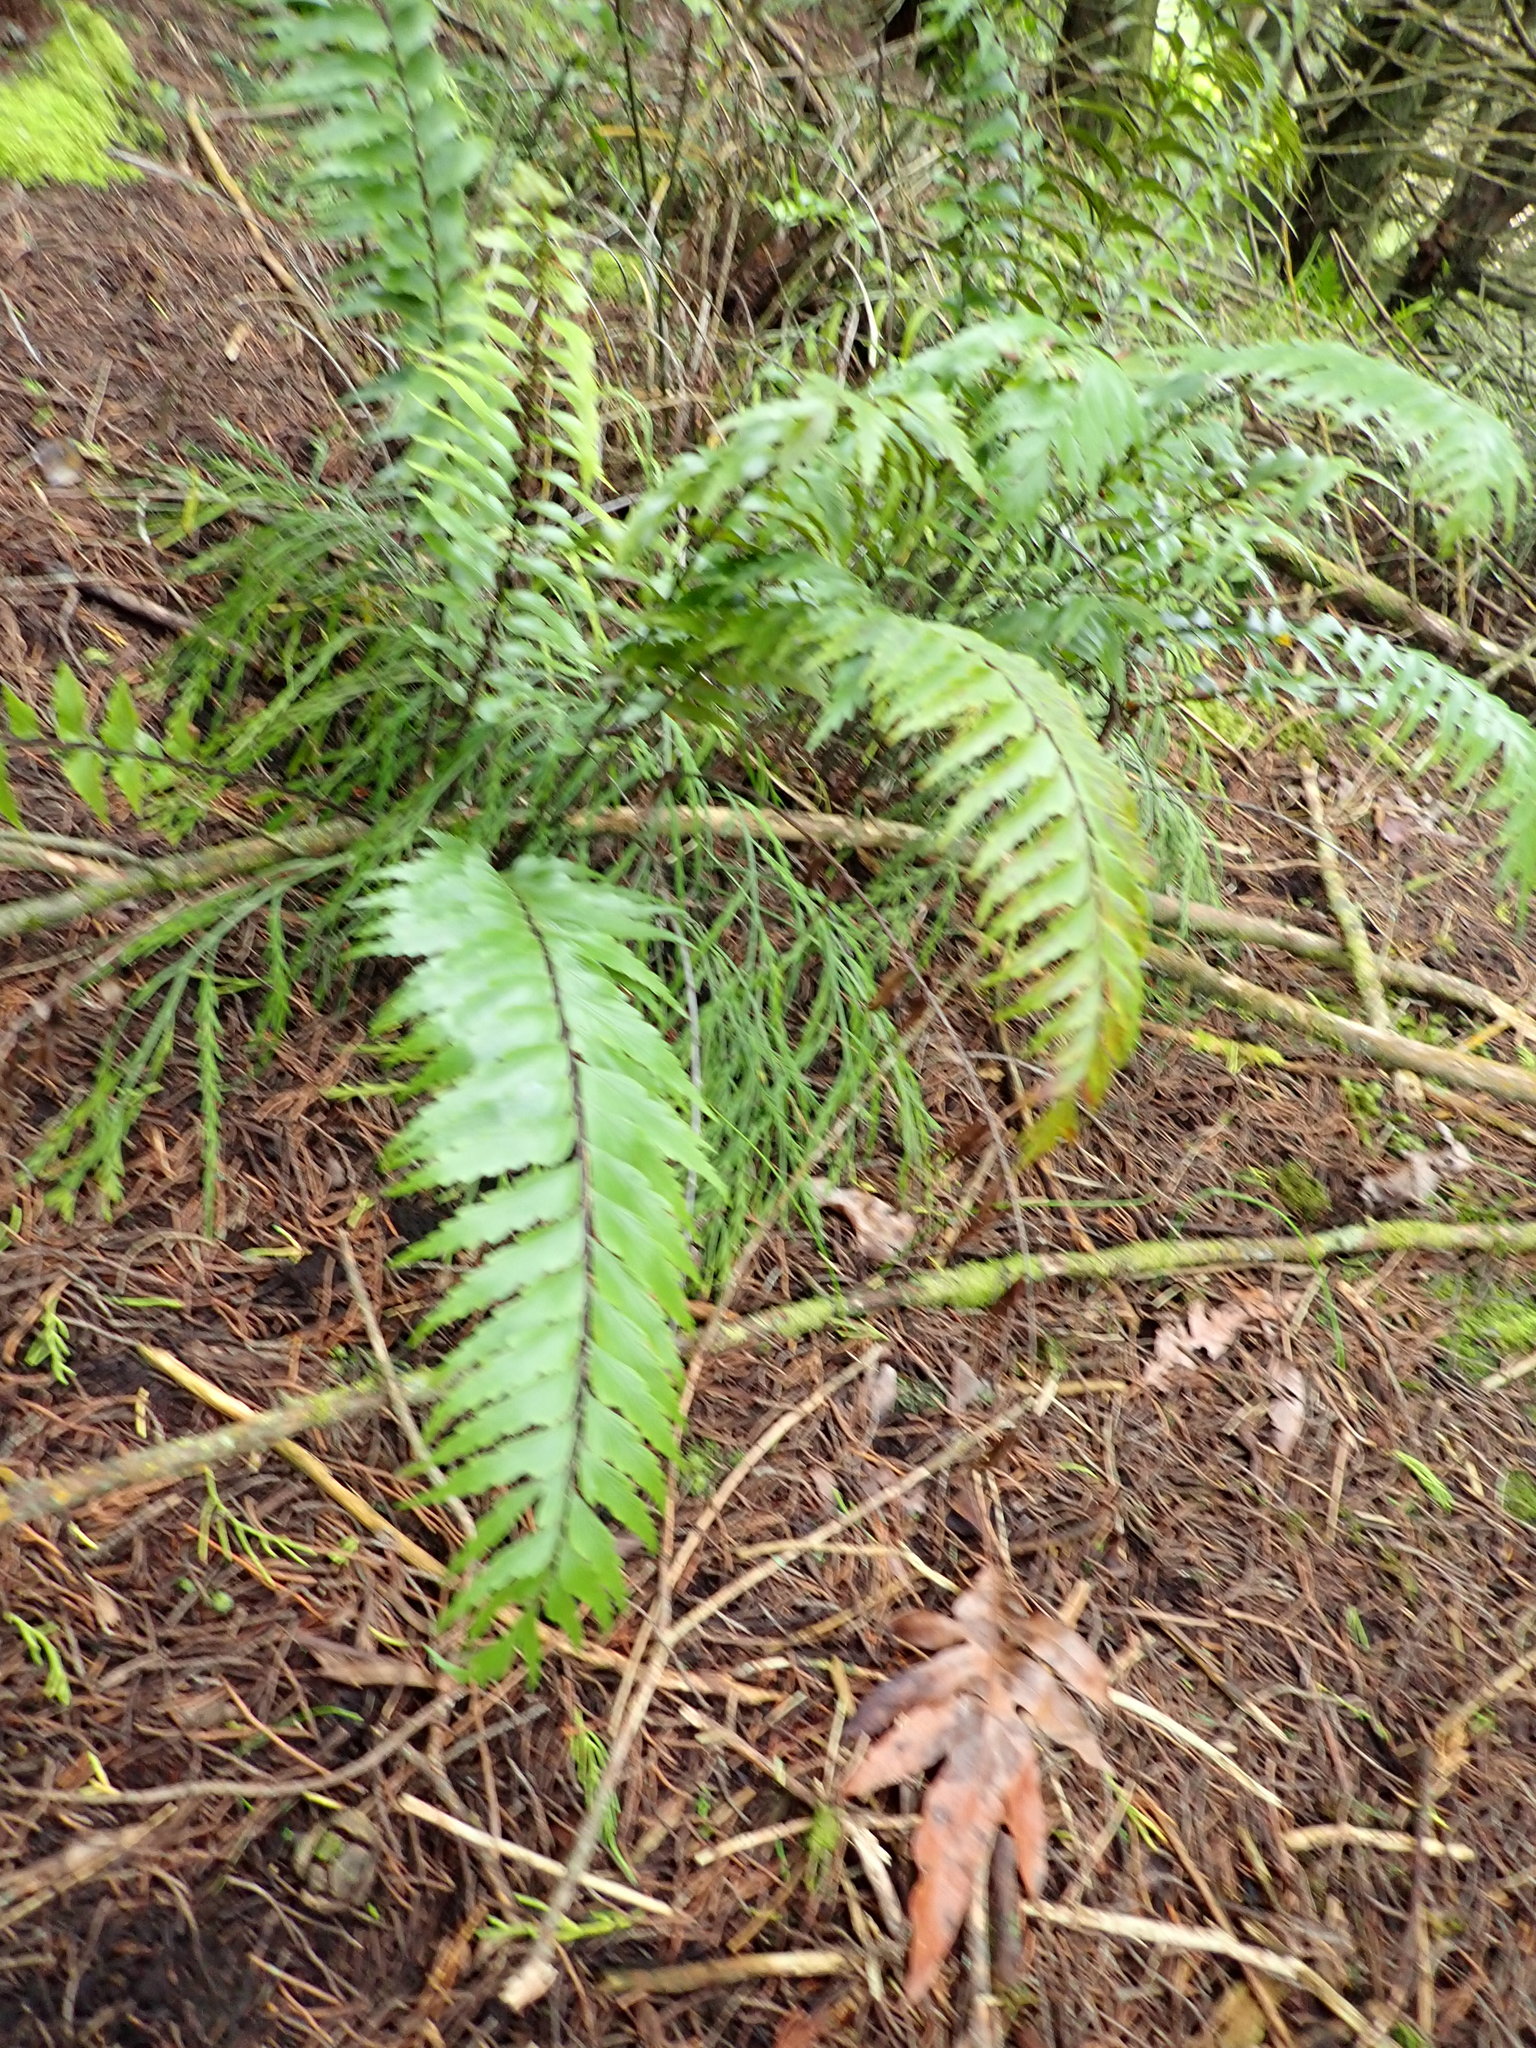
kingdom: Plantae
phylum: Tracheophyta
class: Polypodiopsida
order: Polypodiales
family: Aspleniaceae
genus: Asplenium
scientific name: Asplenium polyodon
